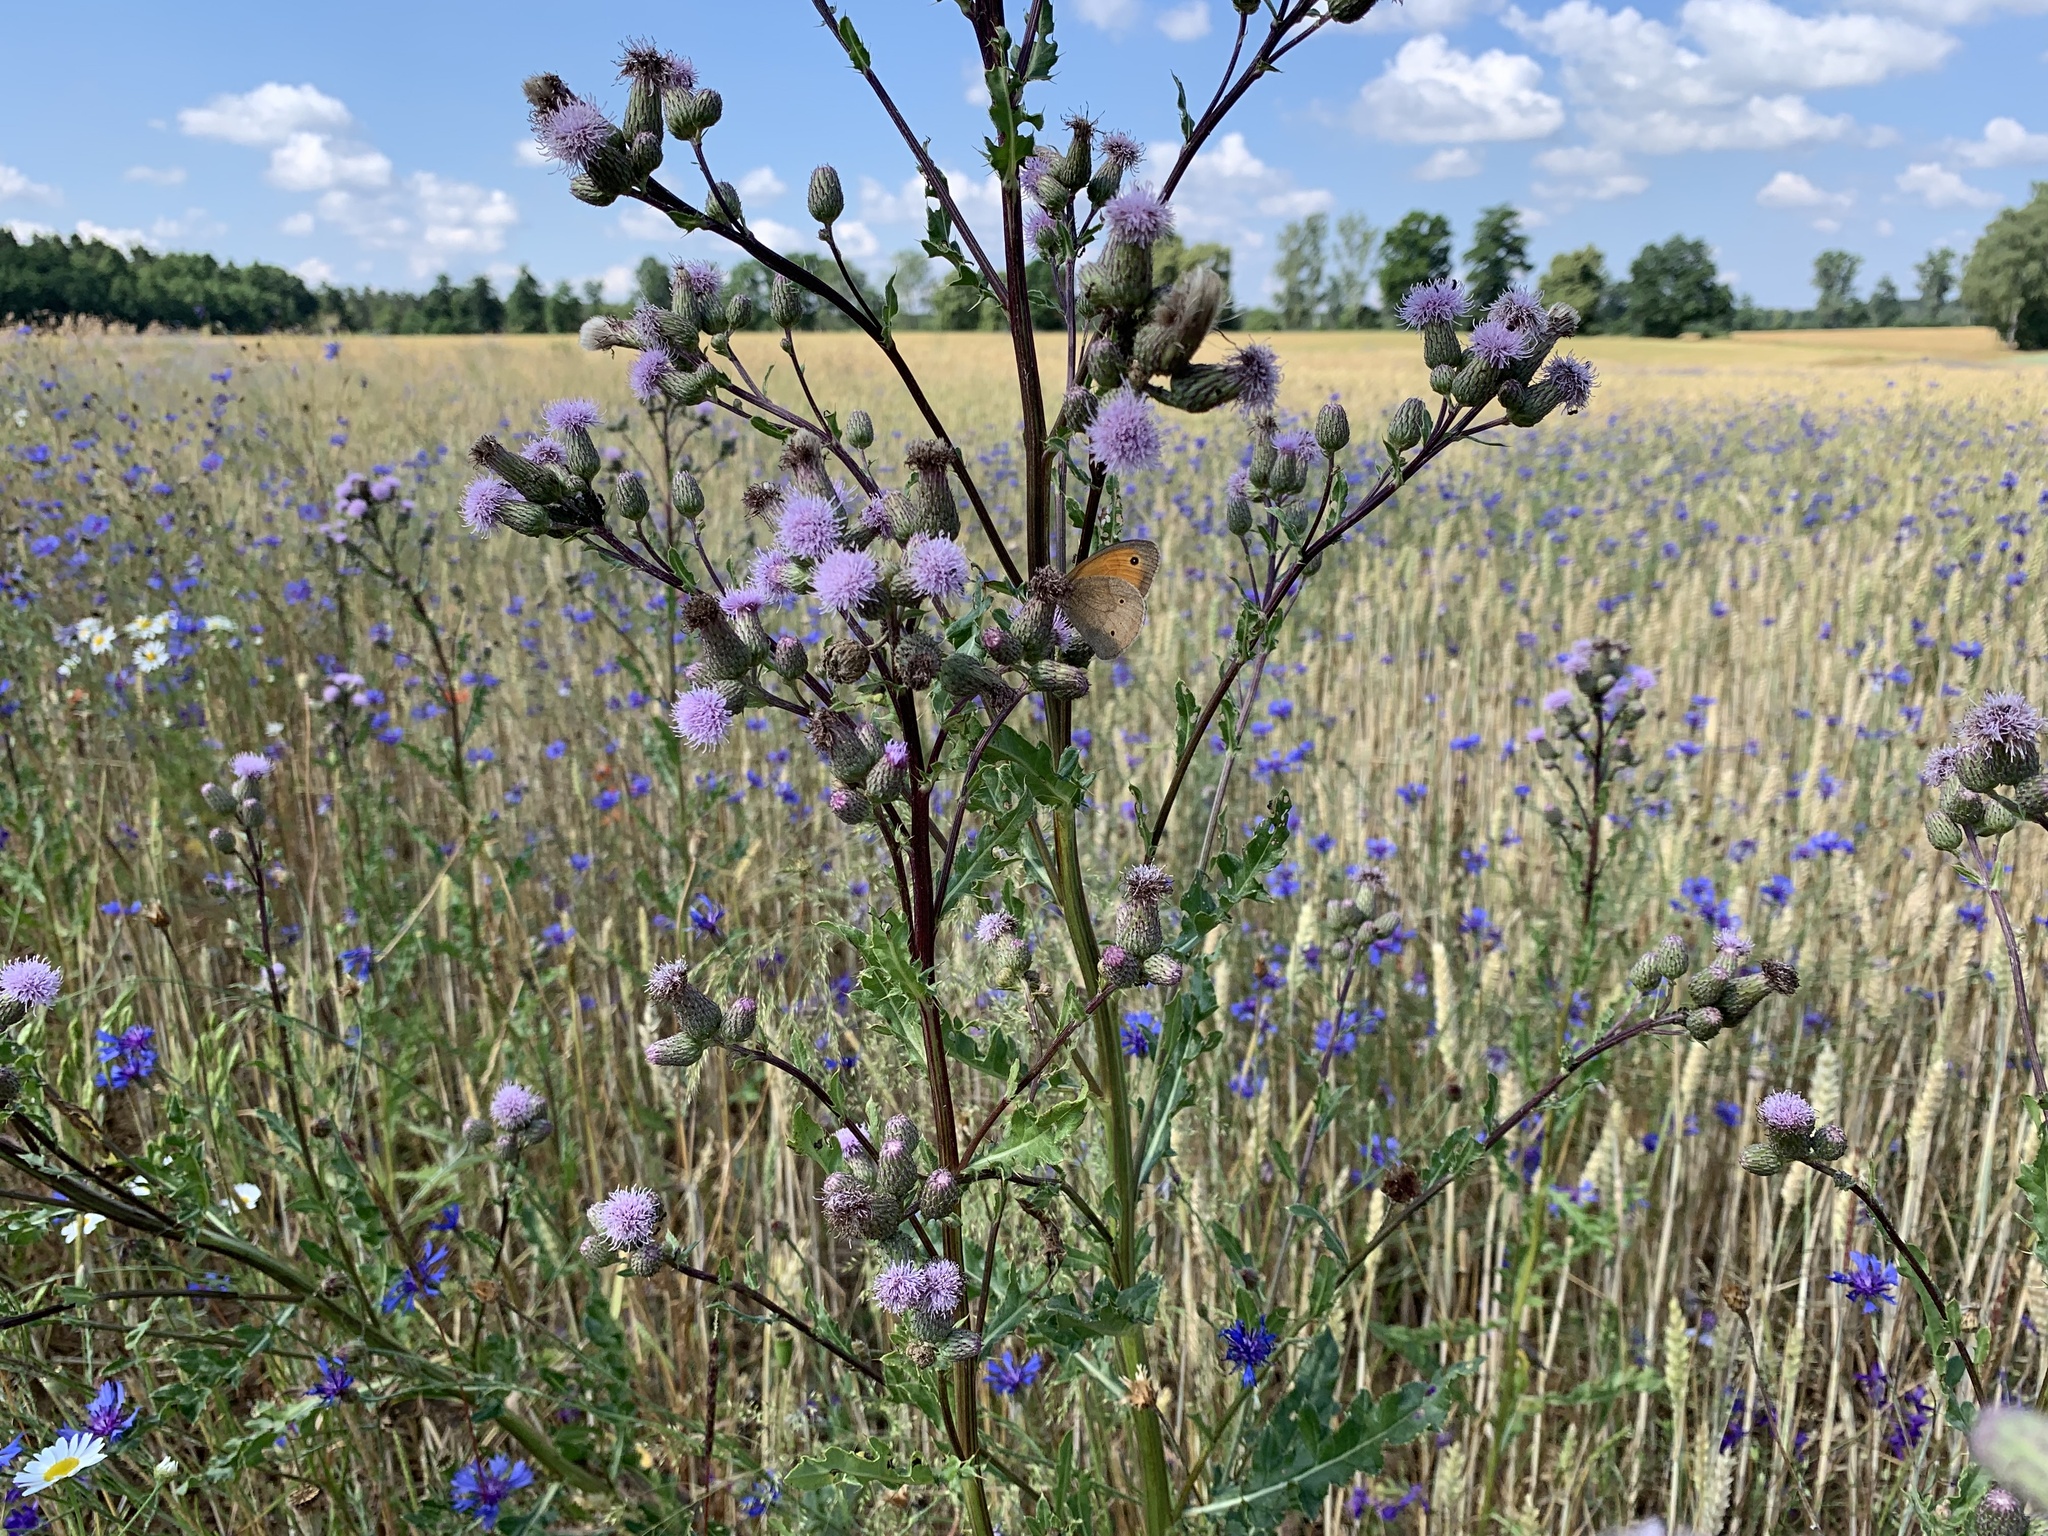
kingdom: Plantae
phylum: Tracheophyta
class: Magnoliopsida
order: Asterales
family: Asteraceae
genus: Cirsium
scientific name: Cirsium arvense
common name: Creeping thistle
